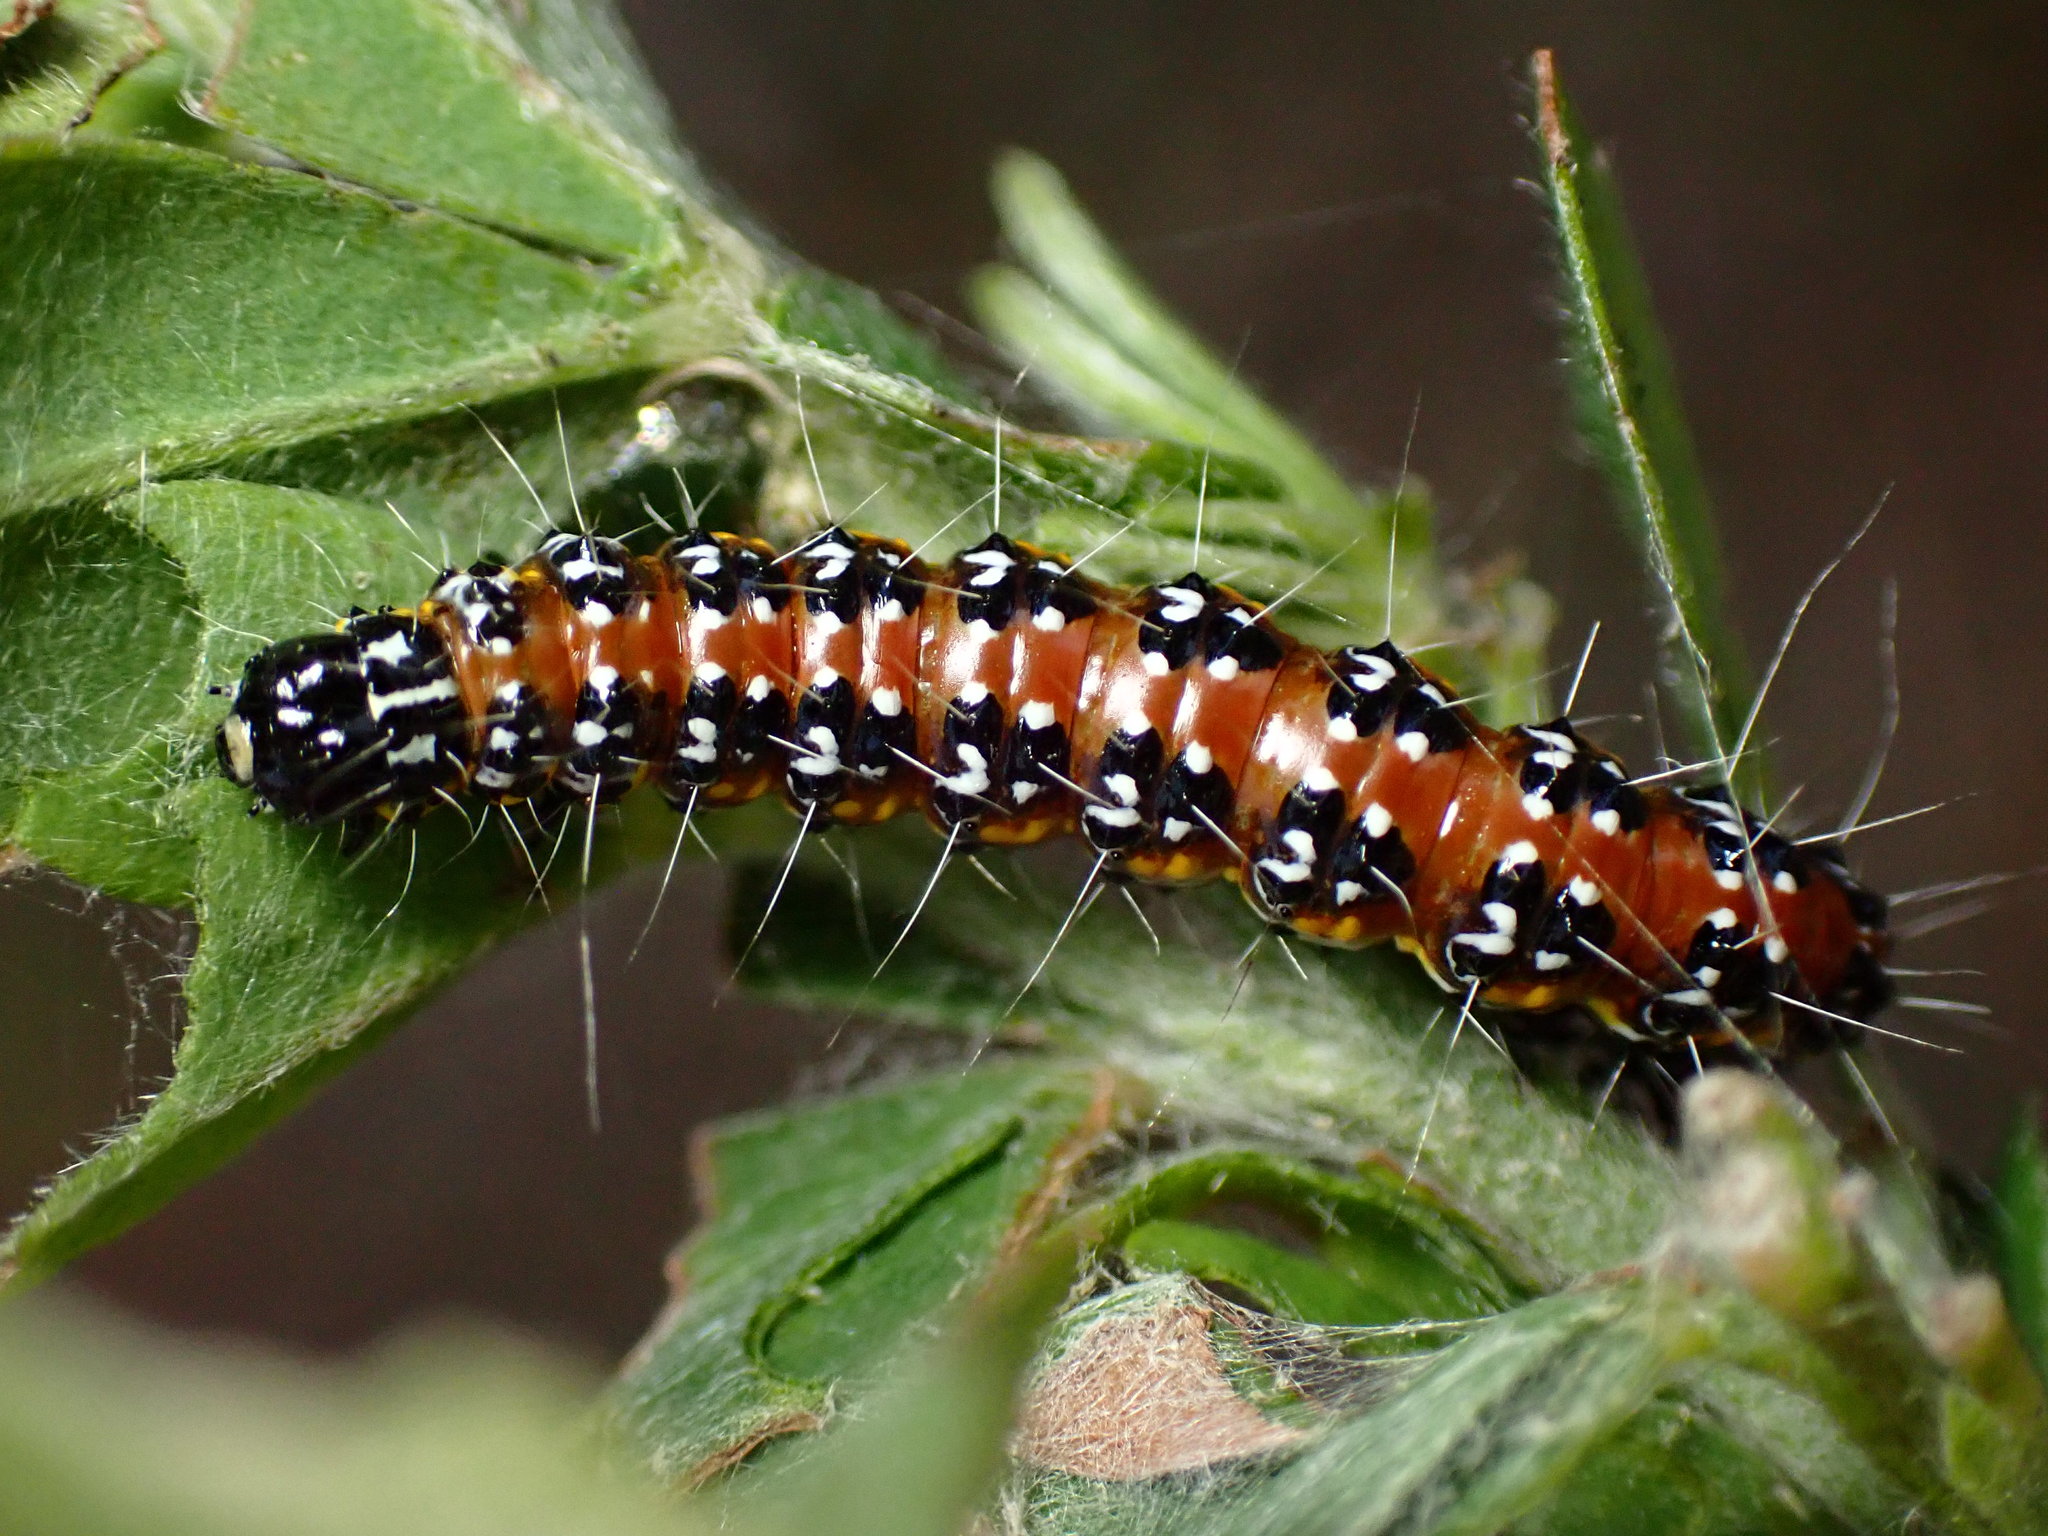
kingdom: Animalia
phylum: Arthropoda
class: Insecta
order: Lepidoptera
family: Crambidae
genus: Uresiphita
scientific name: Uresiphita reversalis
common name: Genista broom moth
